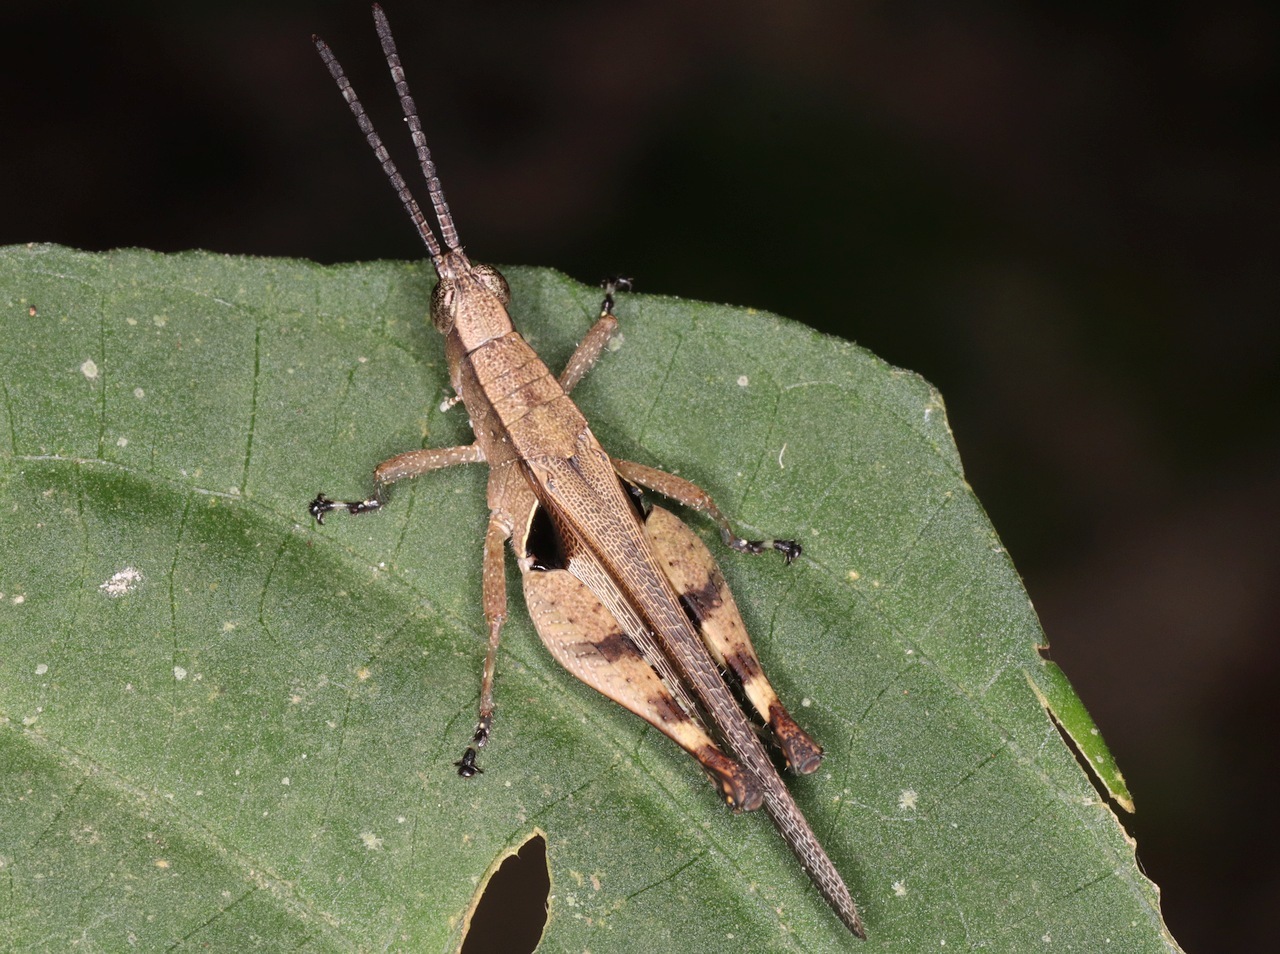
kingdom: Animalia
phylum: Arthropoda
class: Insecta
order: Orthoptera
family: Acrididae
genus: Xiphiola
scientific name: Xiphiola cyanoptera
